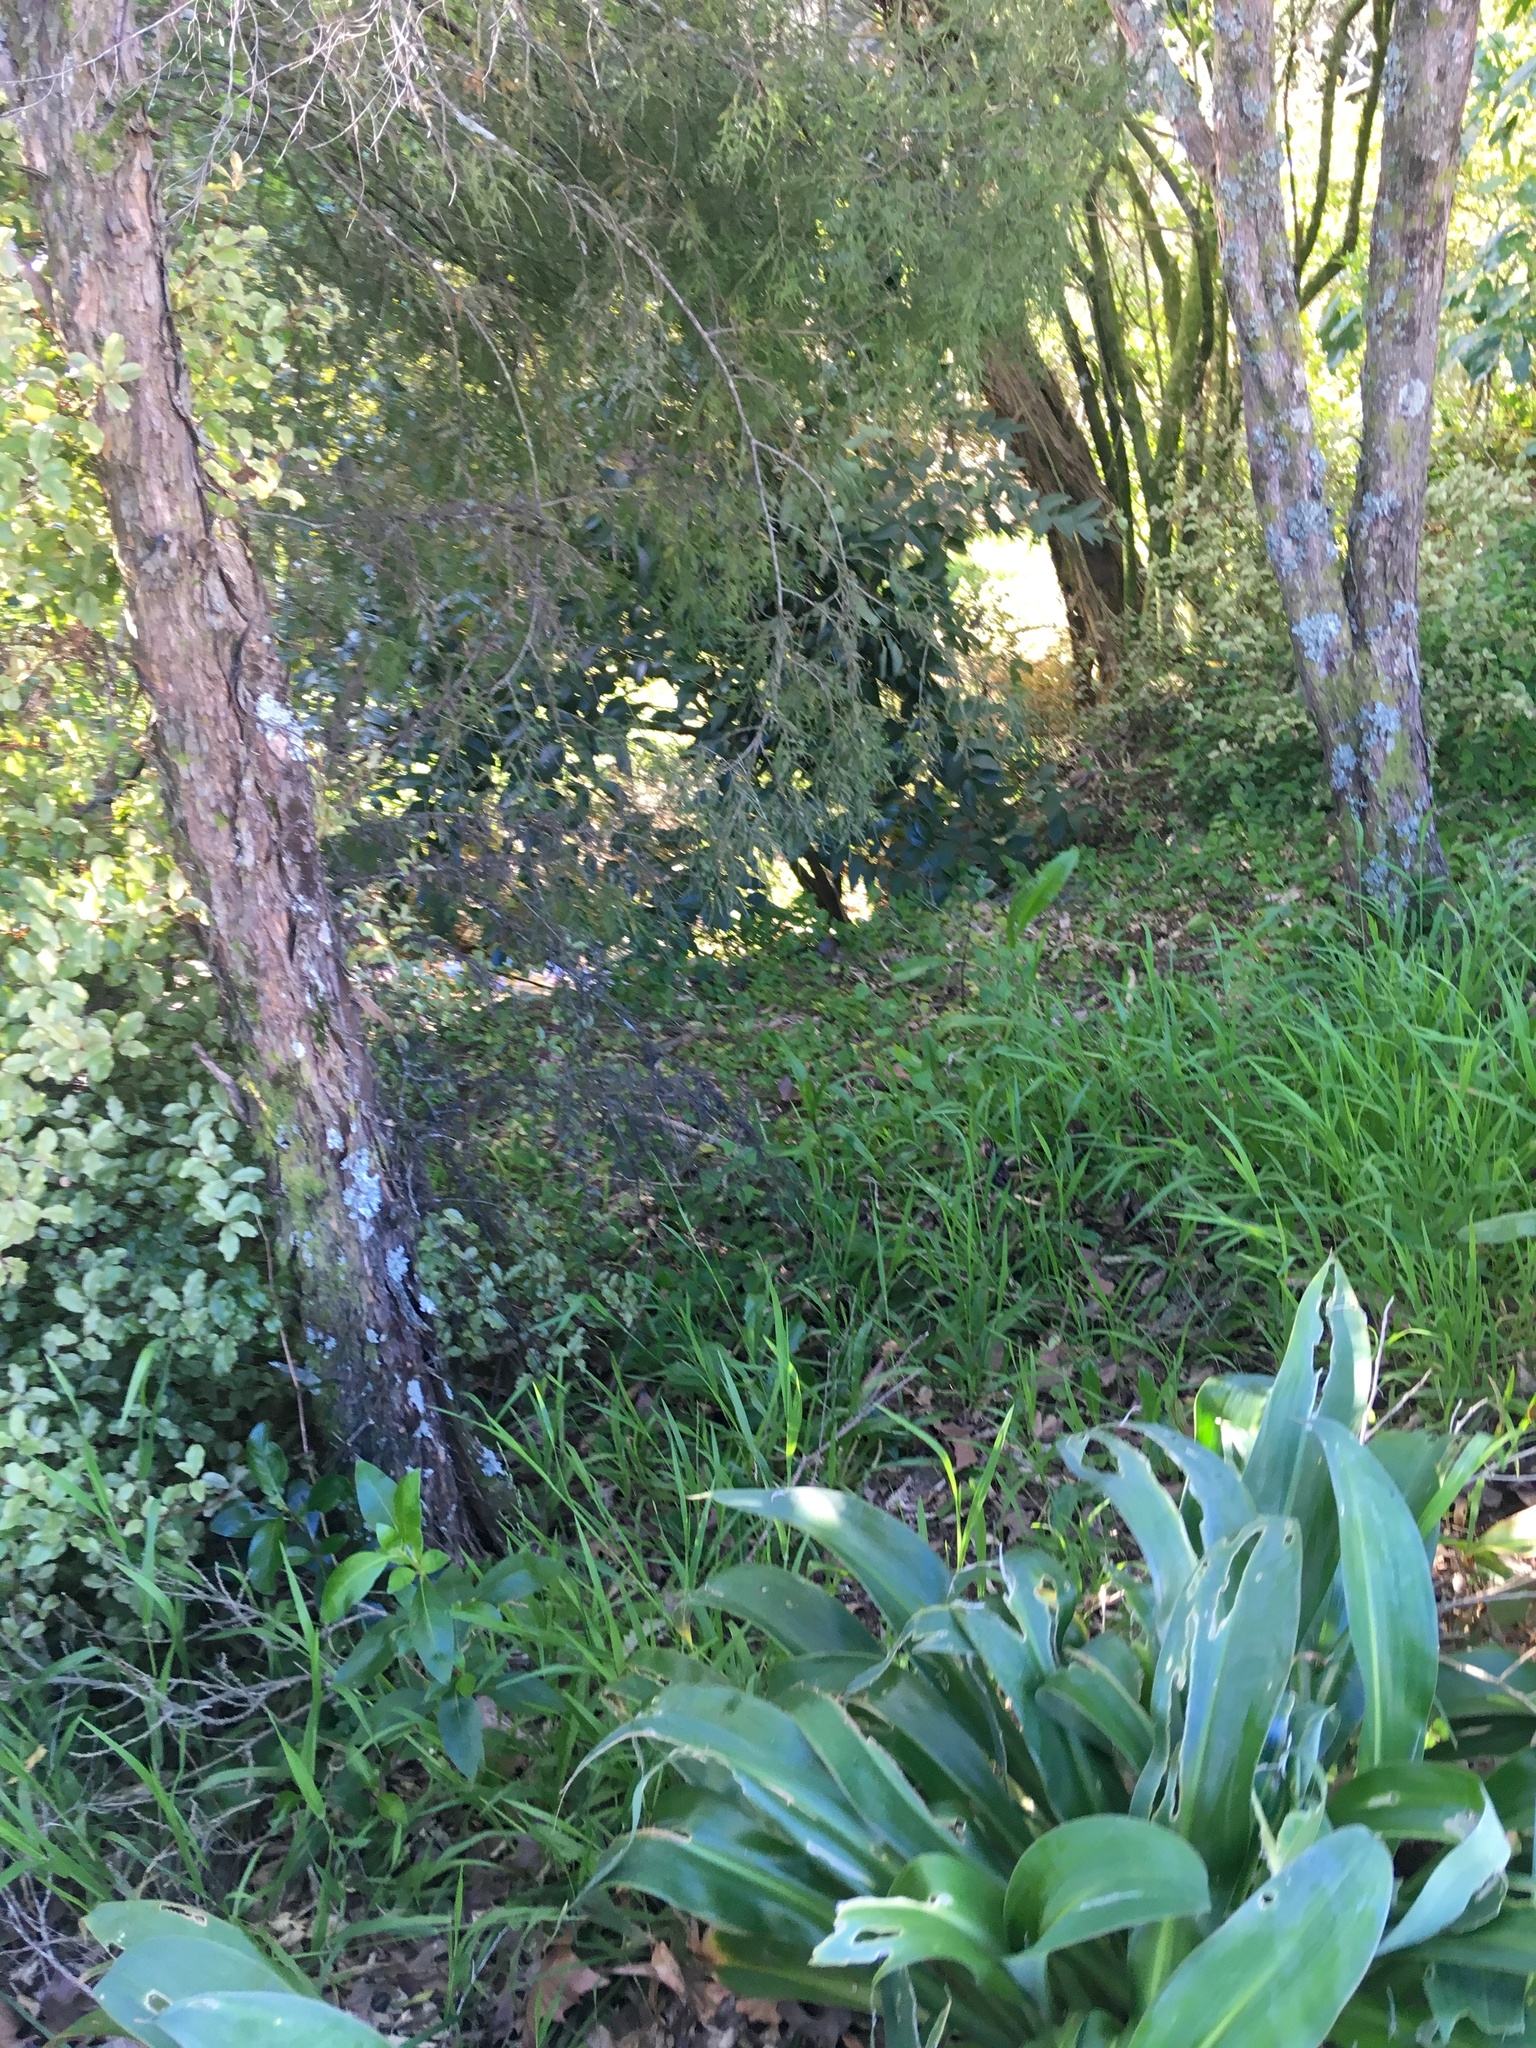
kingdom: Plantae
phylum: Tracheophyta
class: Pinopsida
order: Pinales
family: Podocarpaceae
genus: Dacrycarpus
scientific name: Dacrycarpus dacrydioides
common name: White pine
